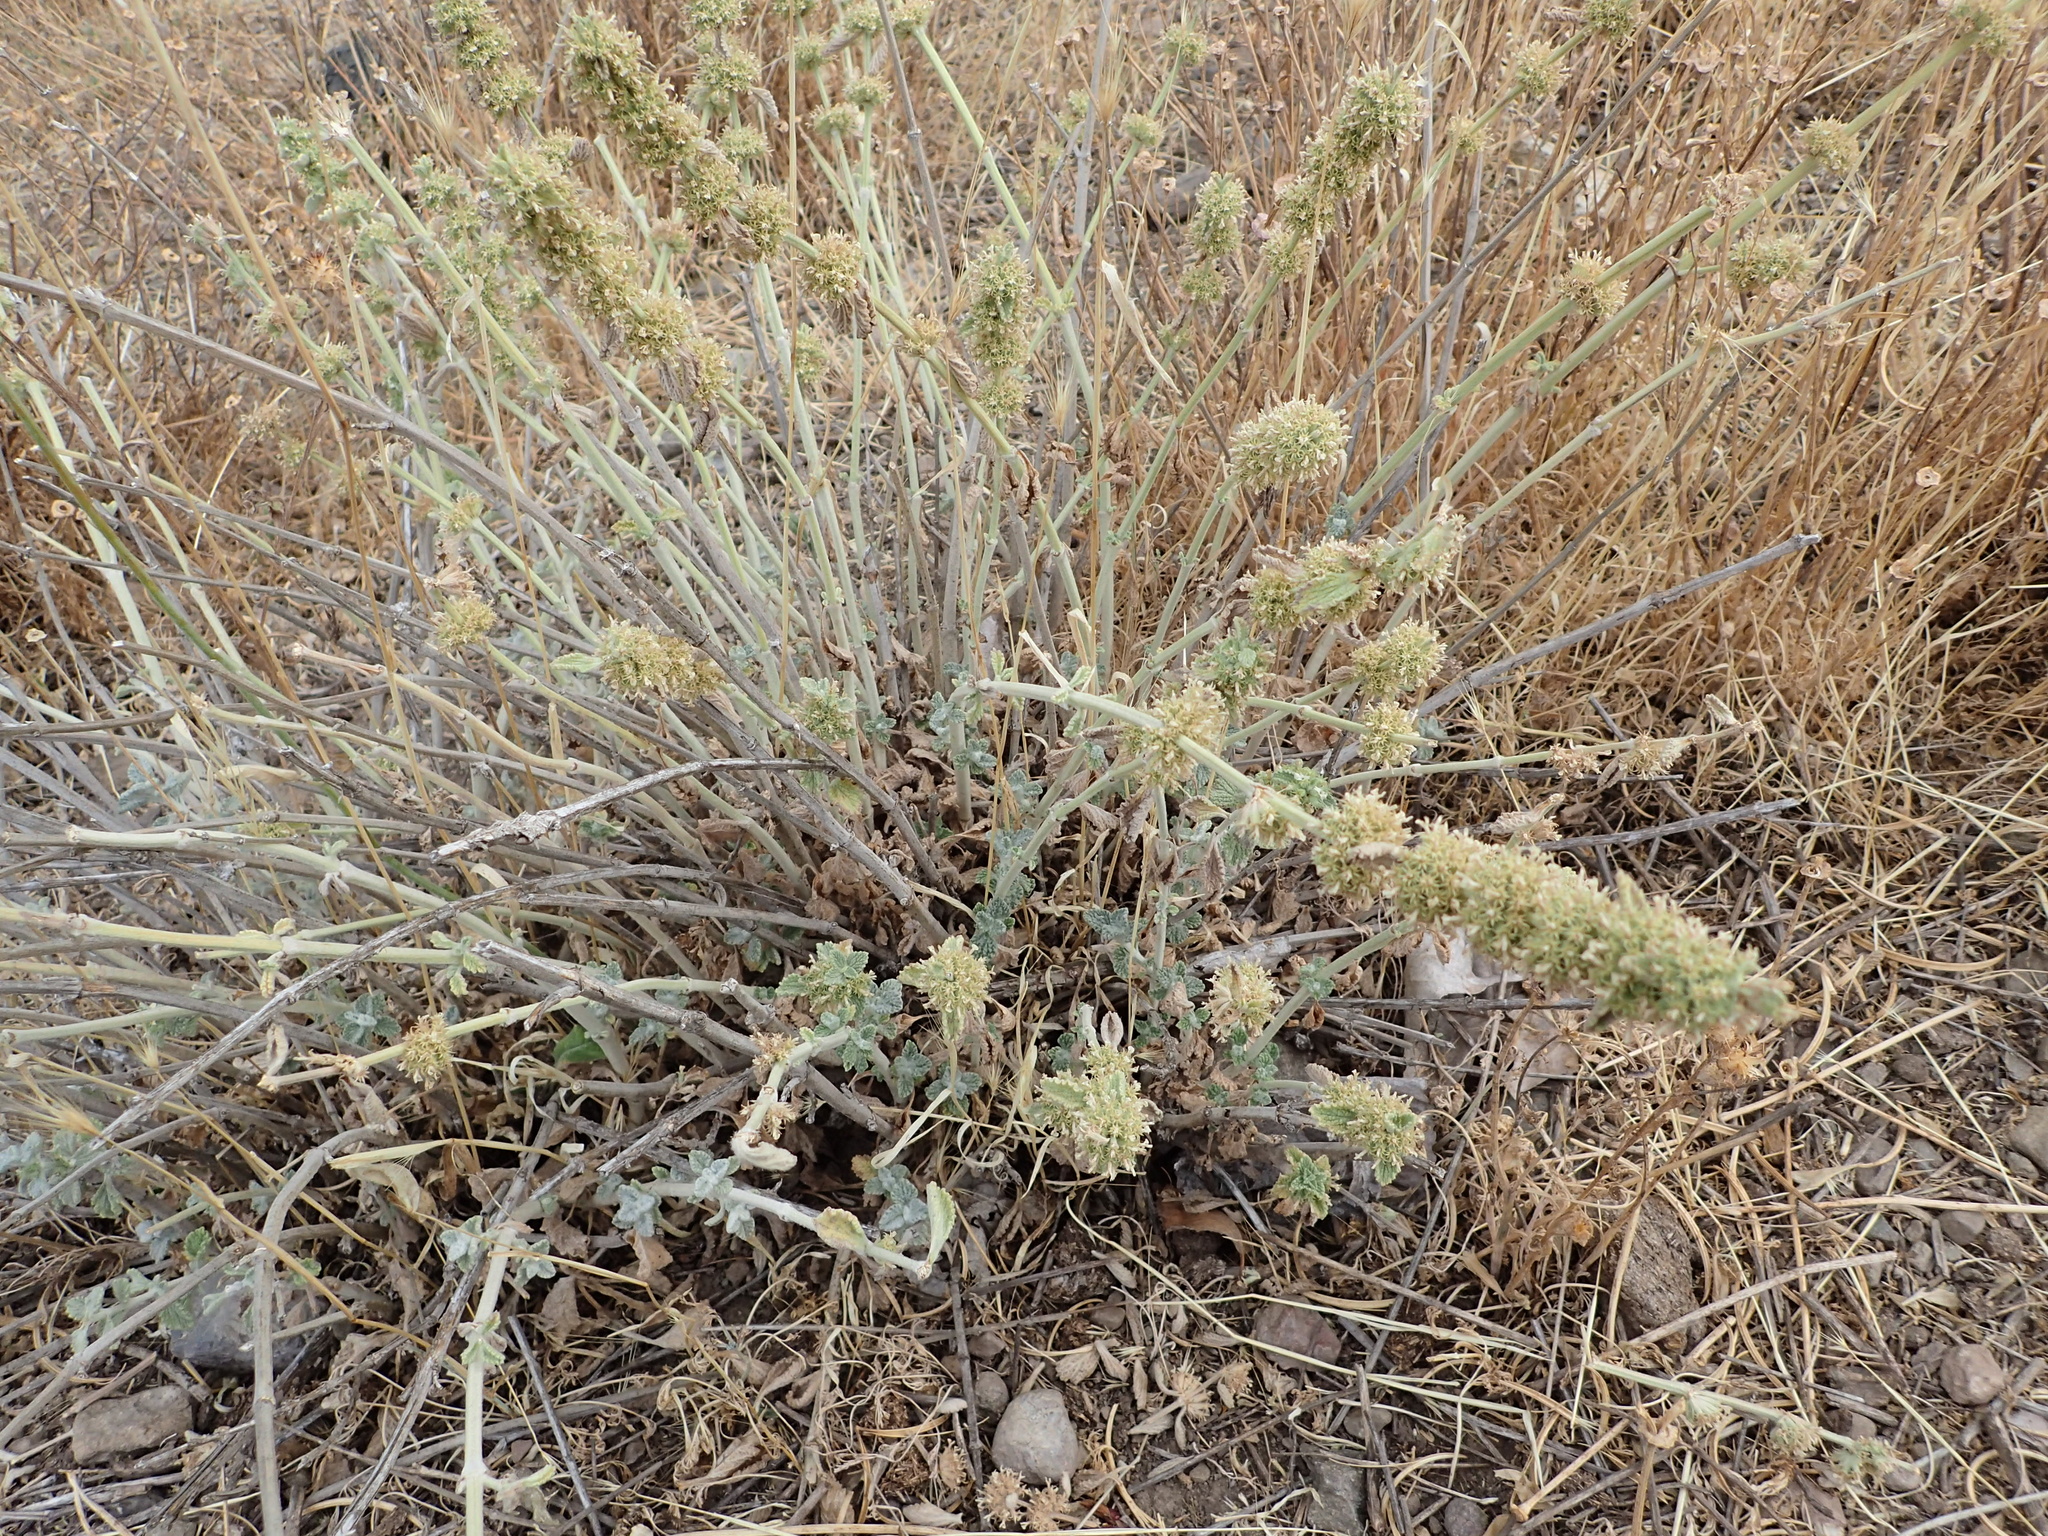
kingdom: Plantae
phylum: Tracheophyta
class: Magnoliopsida
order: Lamiales
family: Lamiaceae
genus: Marrubium
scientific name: Marrubium vulgare
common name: Horehound
